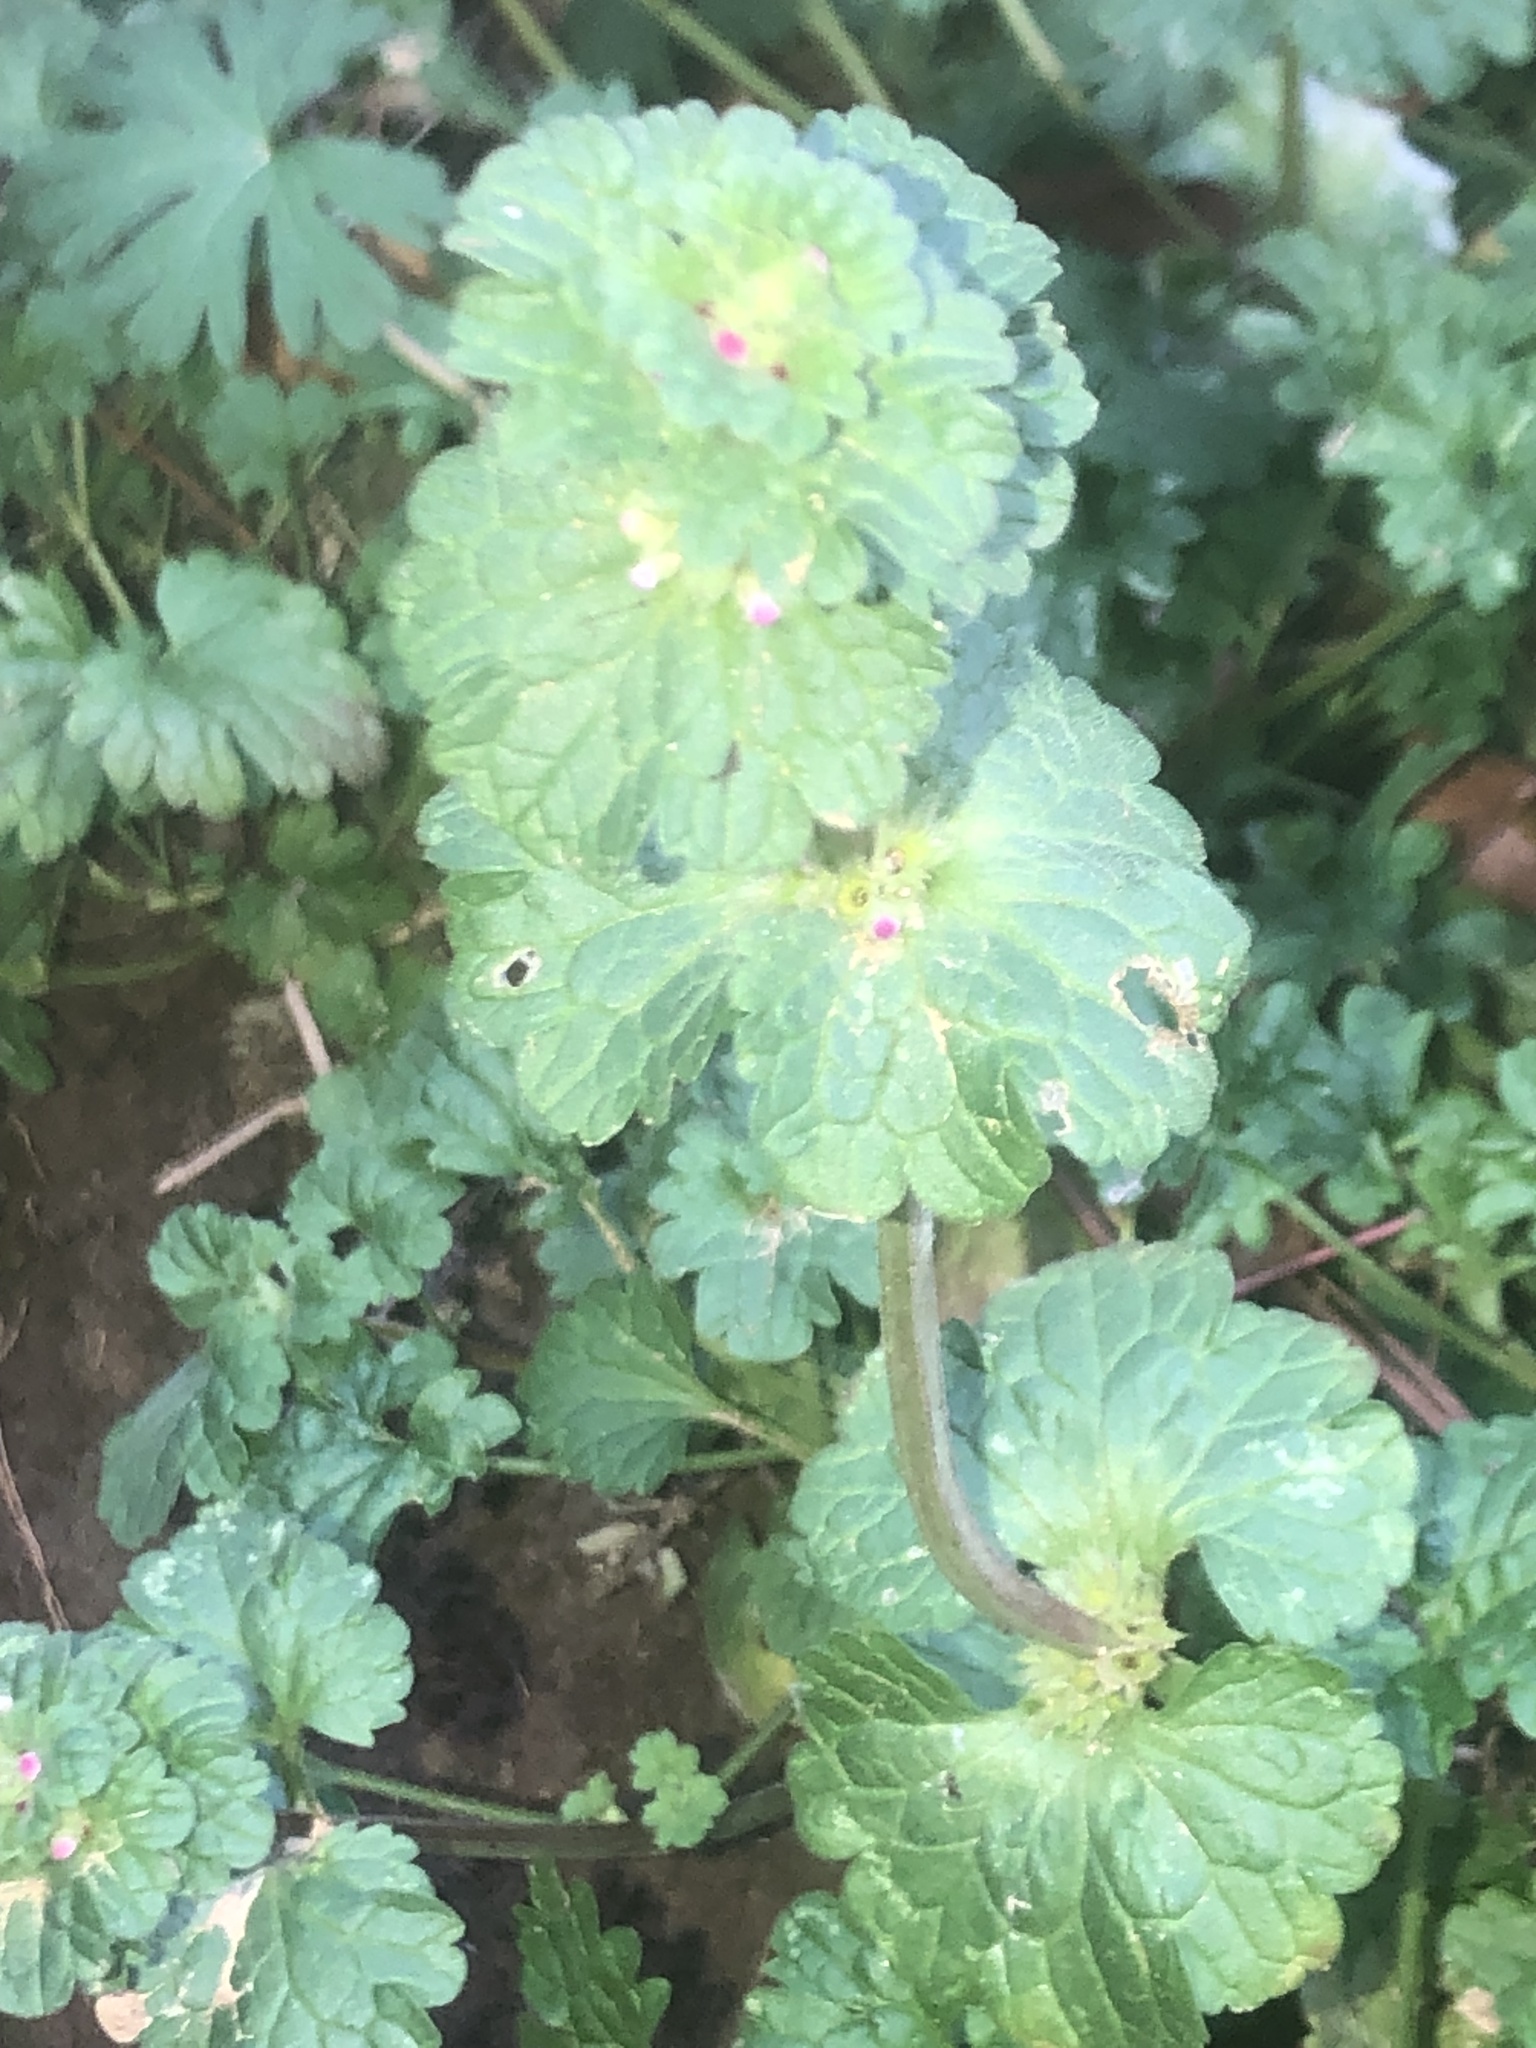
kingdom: Plantae
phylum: Tracheophyta
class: Magnoliopsida
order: Lamiales
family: Lamiaceae
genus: Lamium
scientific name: Lamium amplexicaule
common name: Henbit dead-nettle
